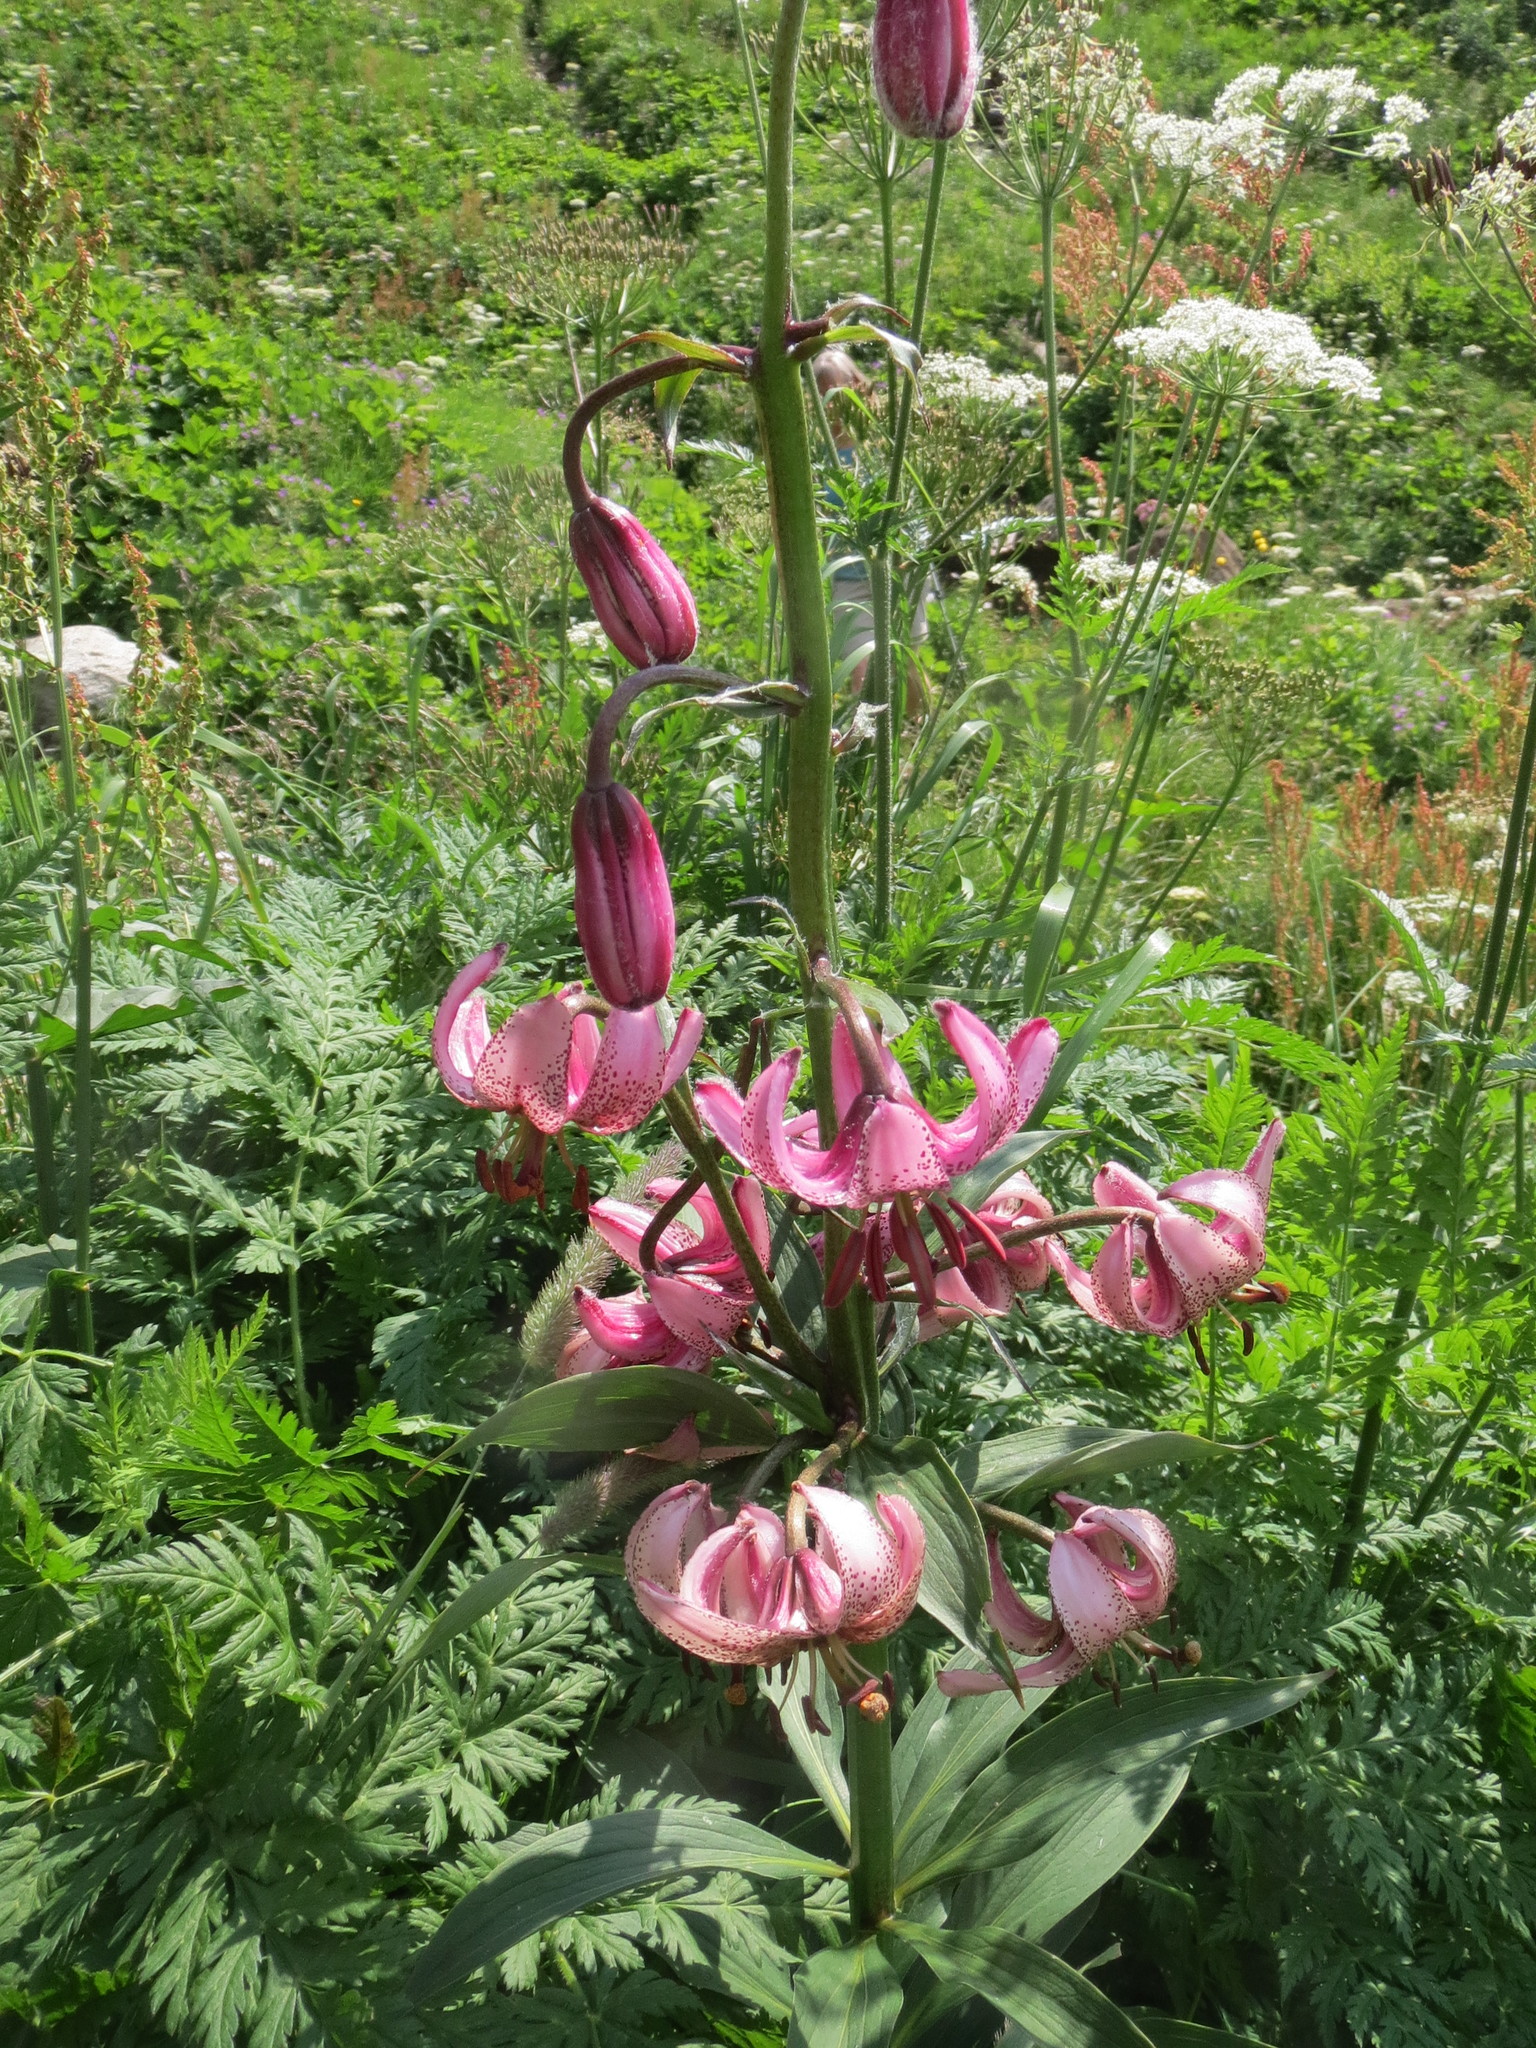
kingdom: Plantae
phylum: Tracheophyta
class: Liliopsida
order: Liliales
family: Liliaceae
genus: Lilium
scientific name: Lilium martagon
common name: Martagon lily
